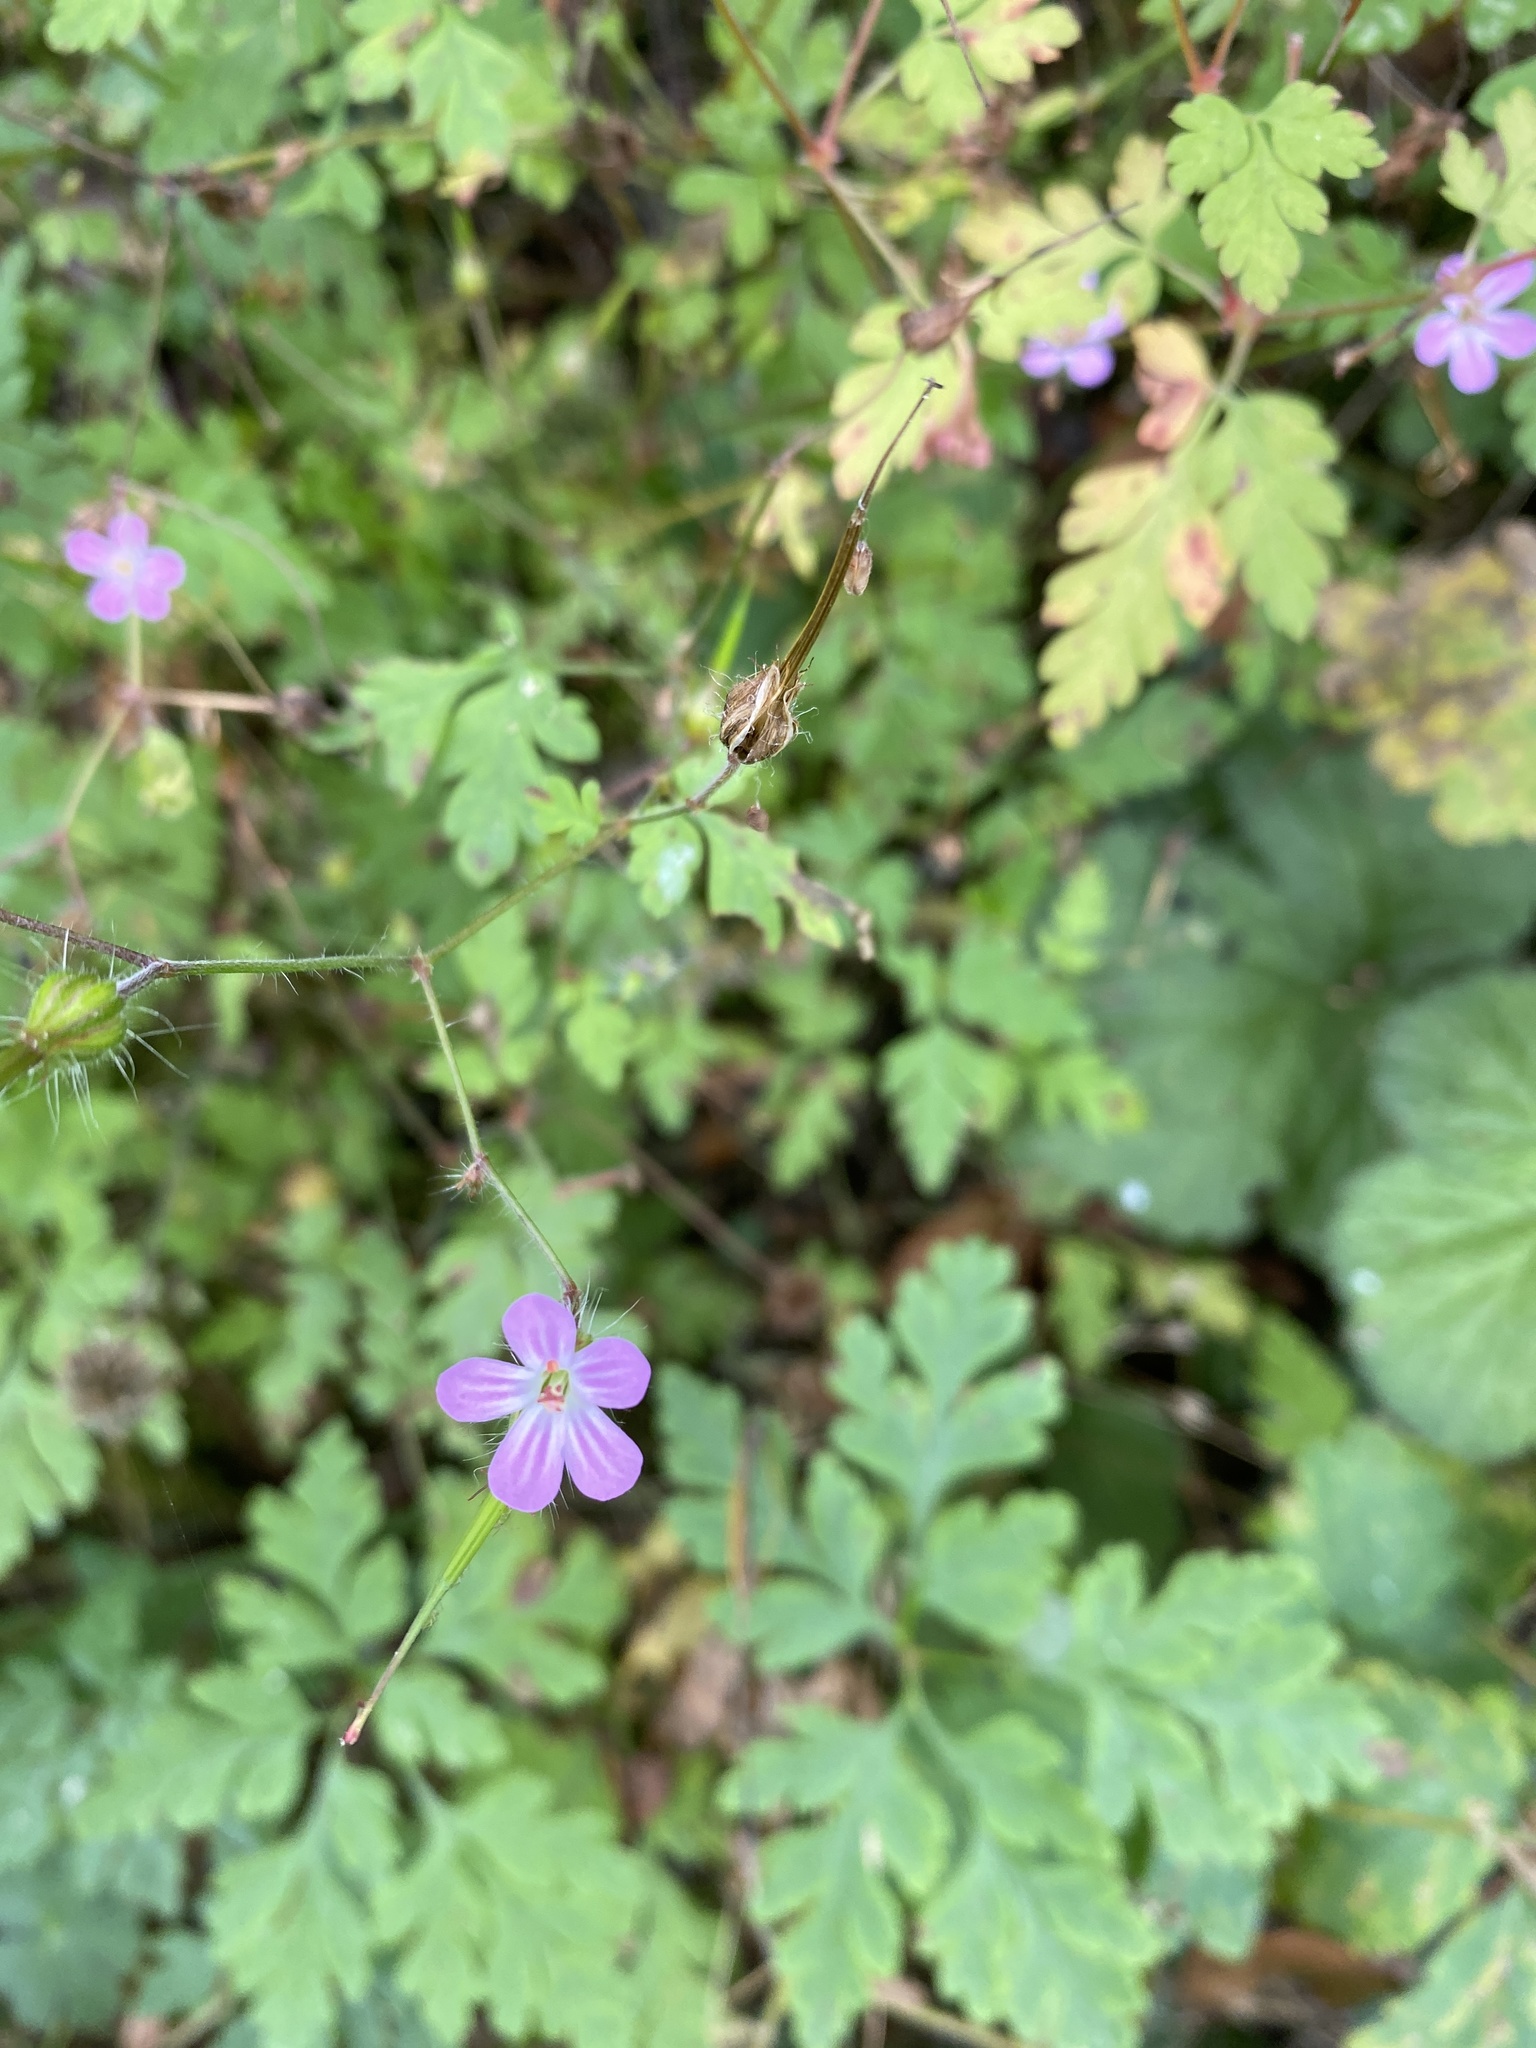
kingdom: Plantae
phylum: Tracheophyta
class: Magnoliopsida
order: Geraniales
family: Geraniaceae
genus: Geranium
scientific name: Geranium robertianum
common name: Herb-robert
